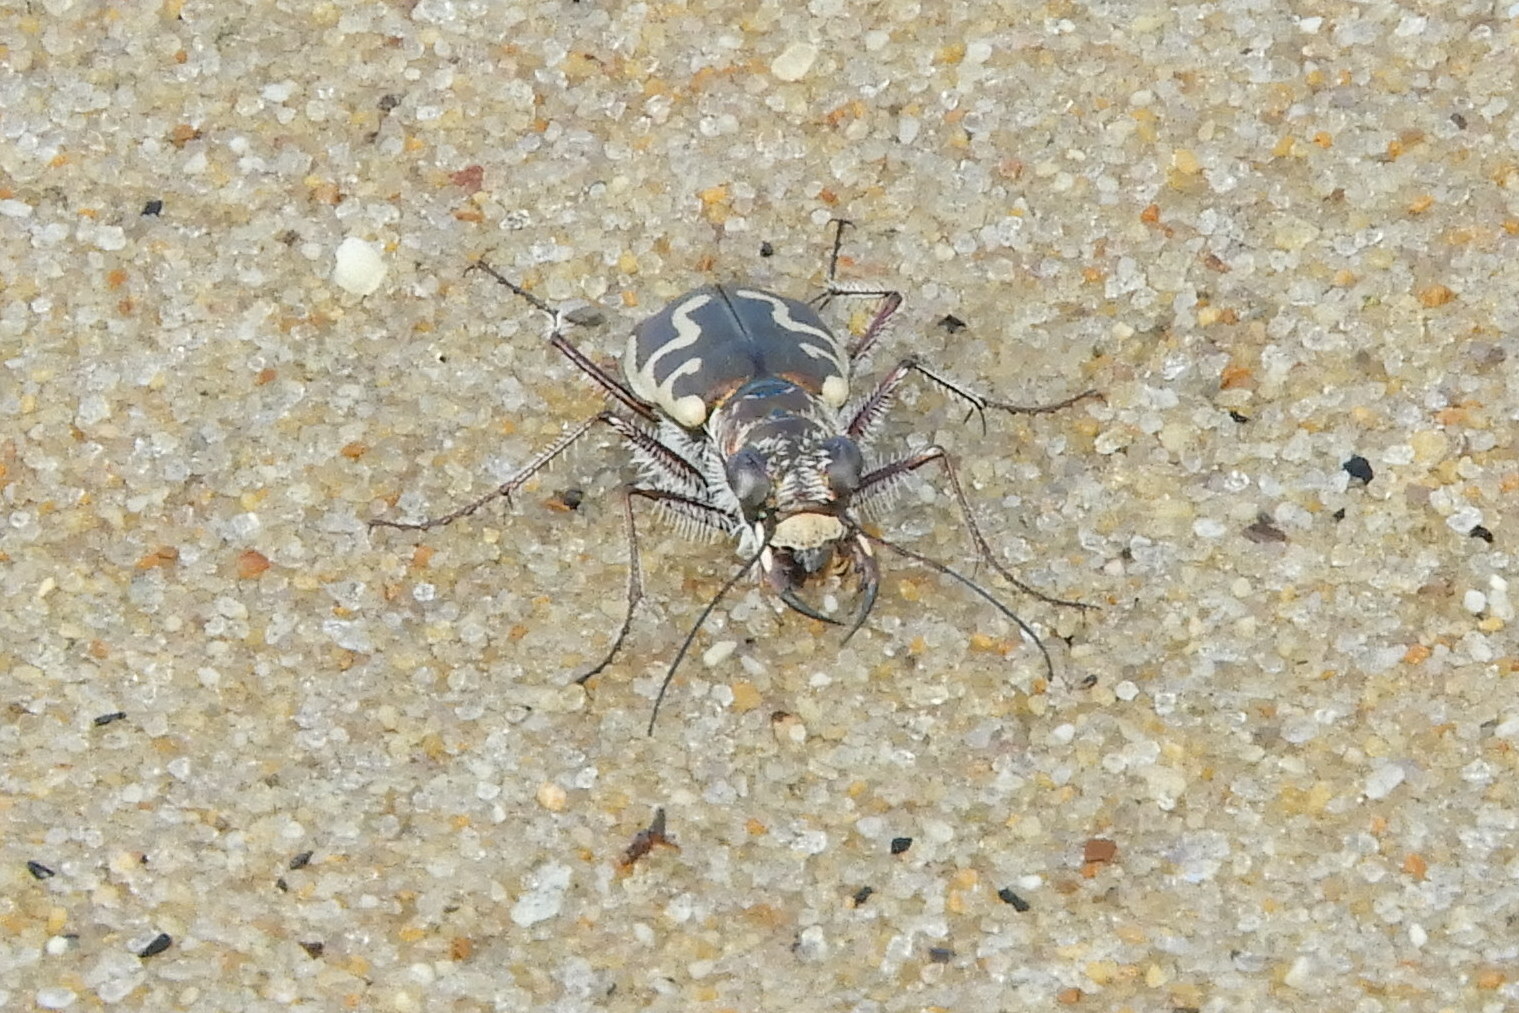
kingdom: Animalia
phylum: Arthropoda
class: Insecta
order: Coleoptera
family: Carabidae
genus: Cicindela
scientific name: Cicindela hirticollis
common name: Hairy-necked tiger beetle
